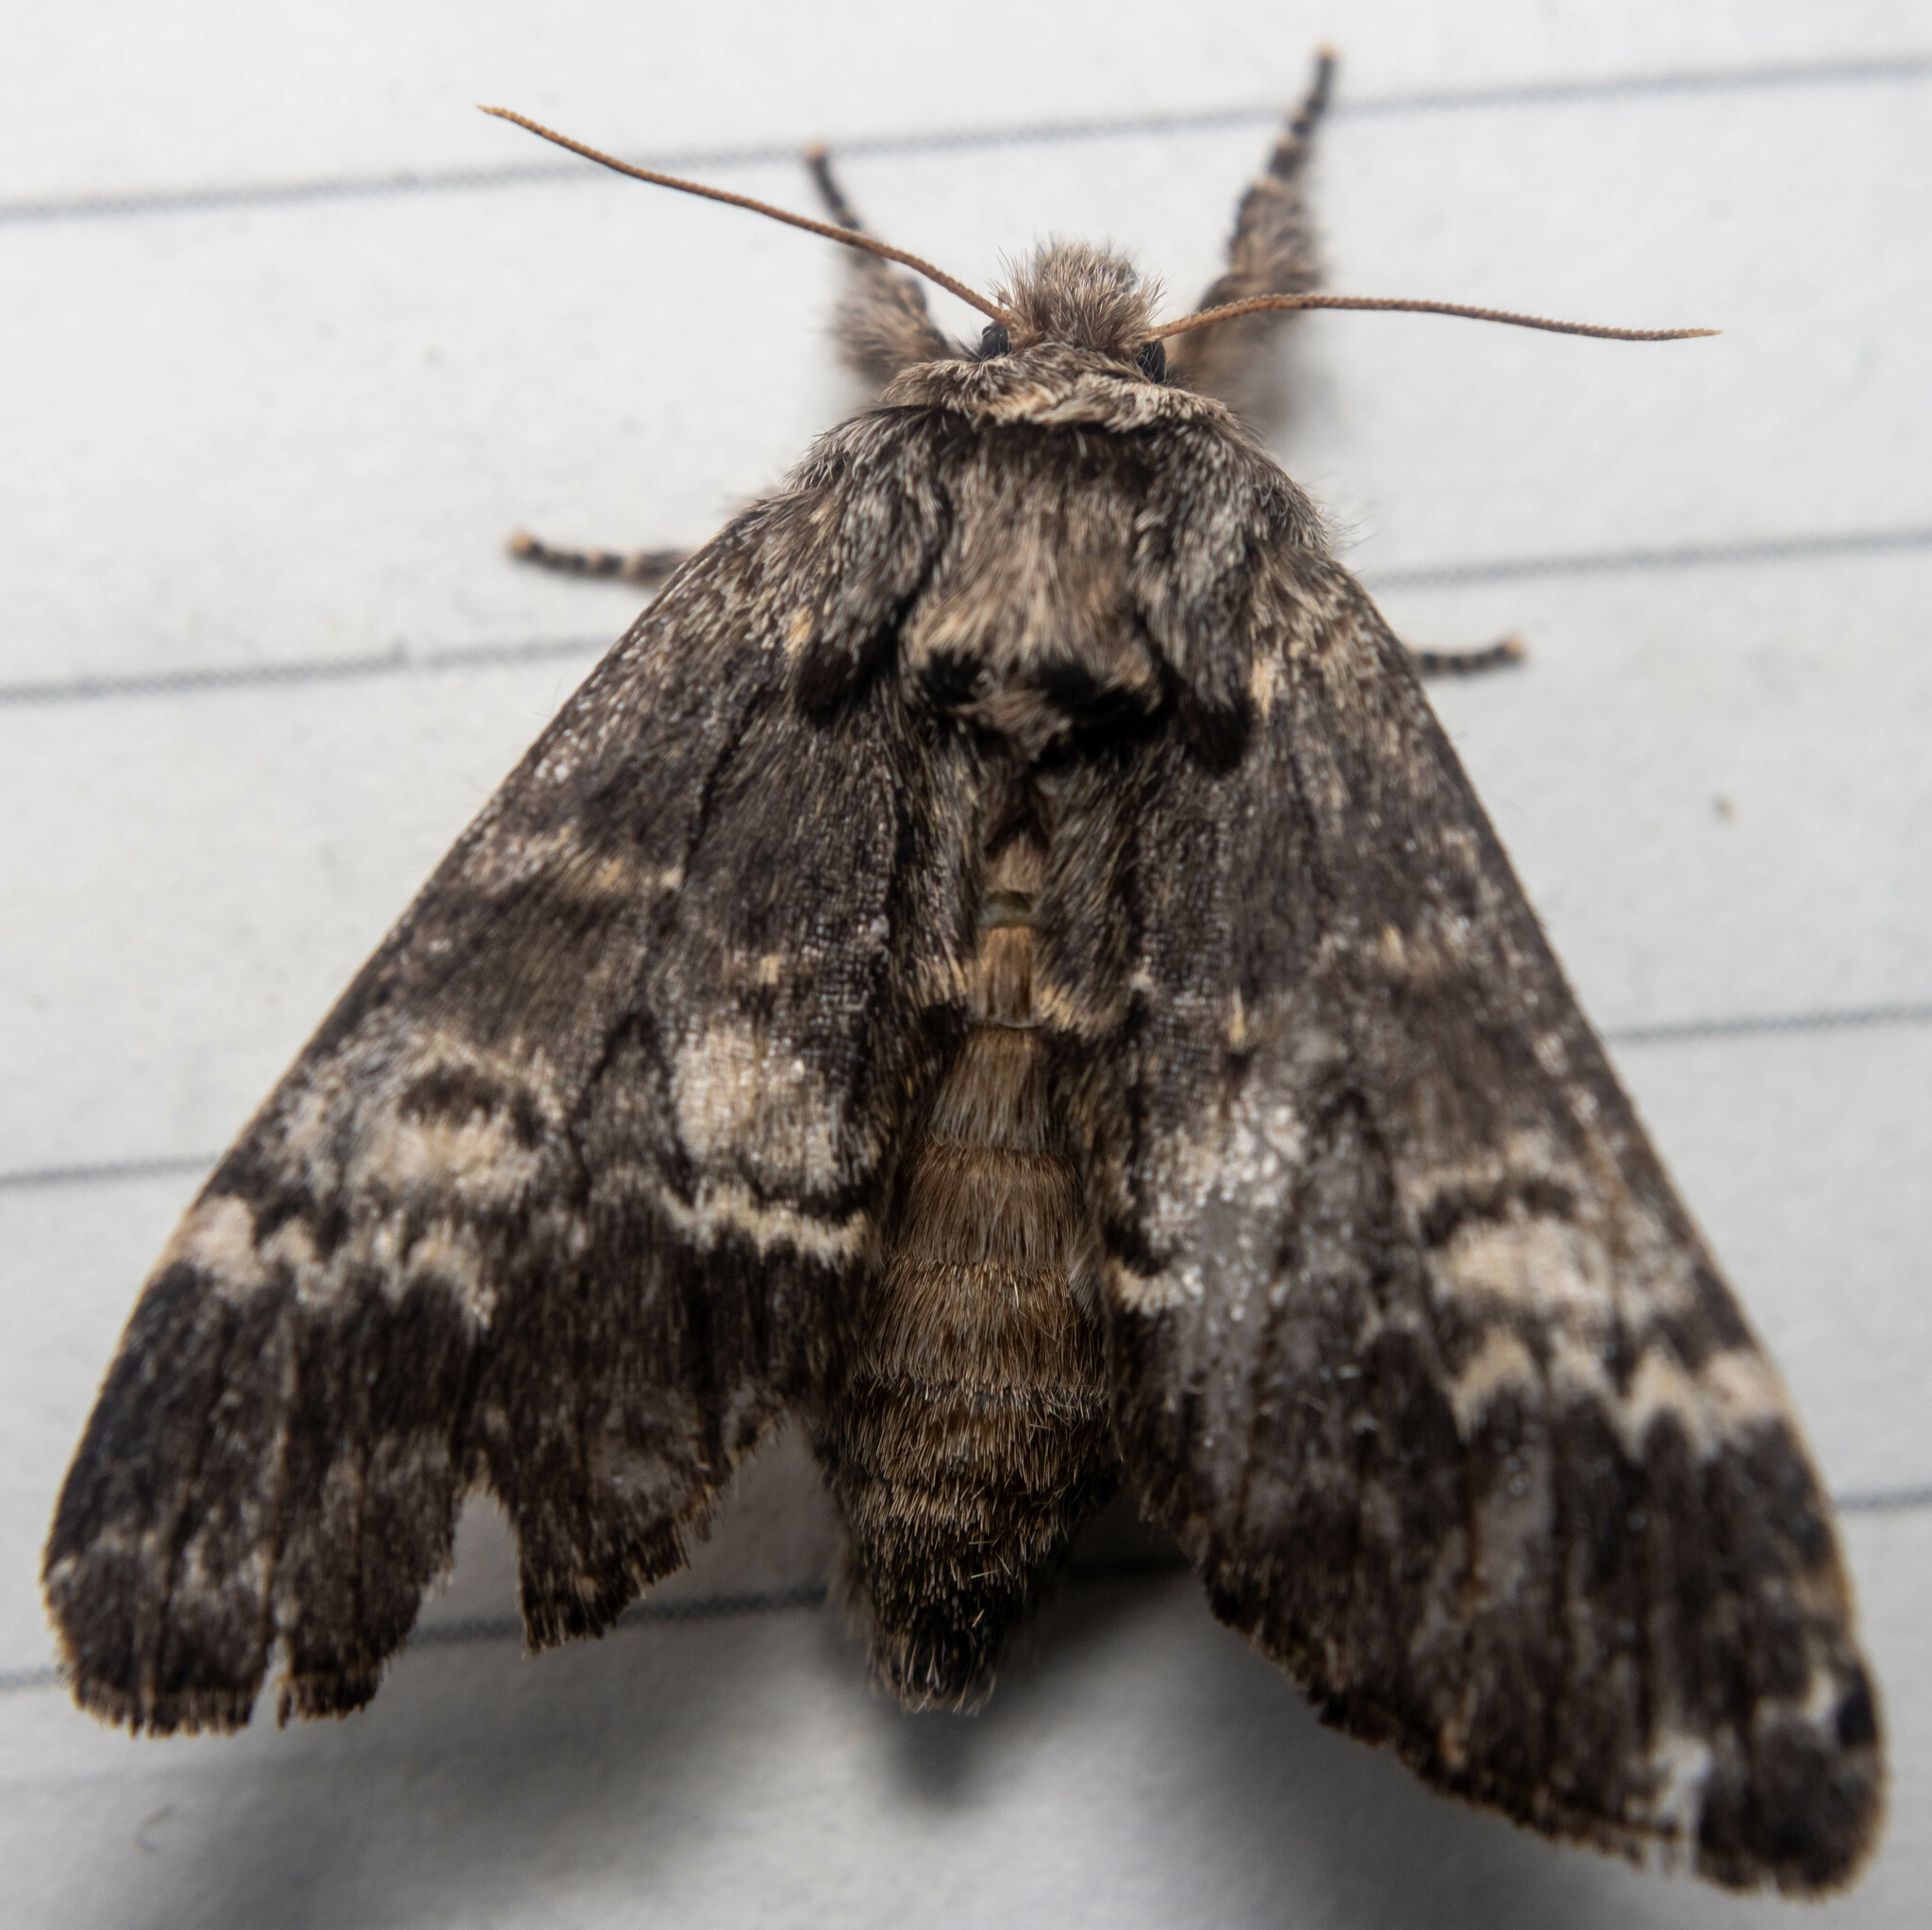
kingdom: Animalia
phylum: Arthropoda
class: Insecta
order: Lepidoptera
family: Notodontidae
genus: Drymonia
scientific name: Drymonia ruficornis
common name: Lunar marbled brown
